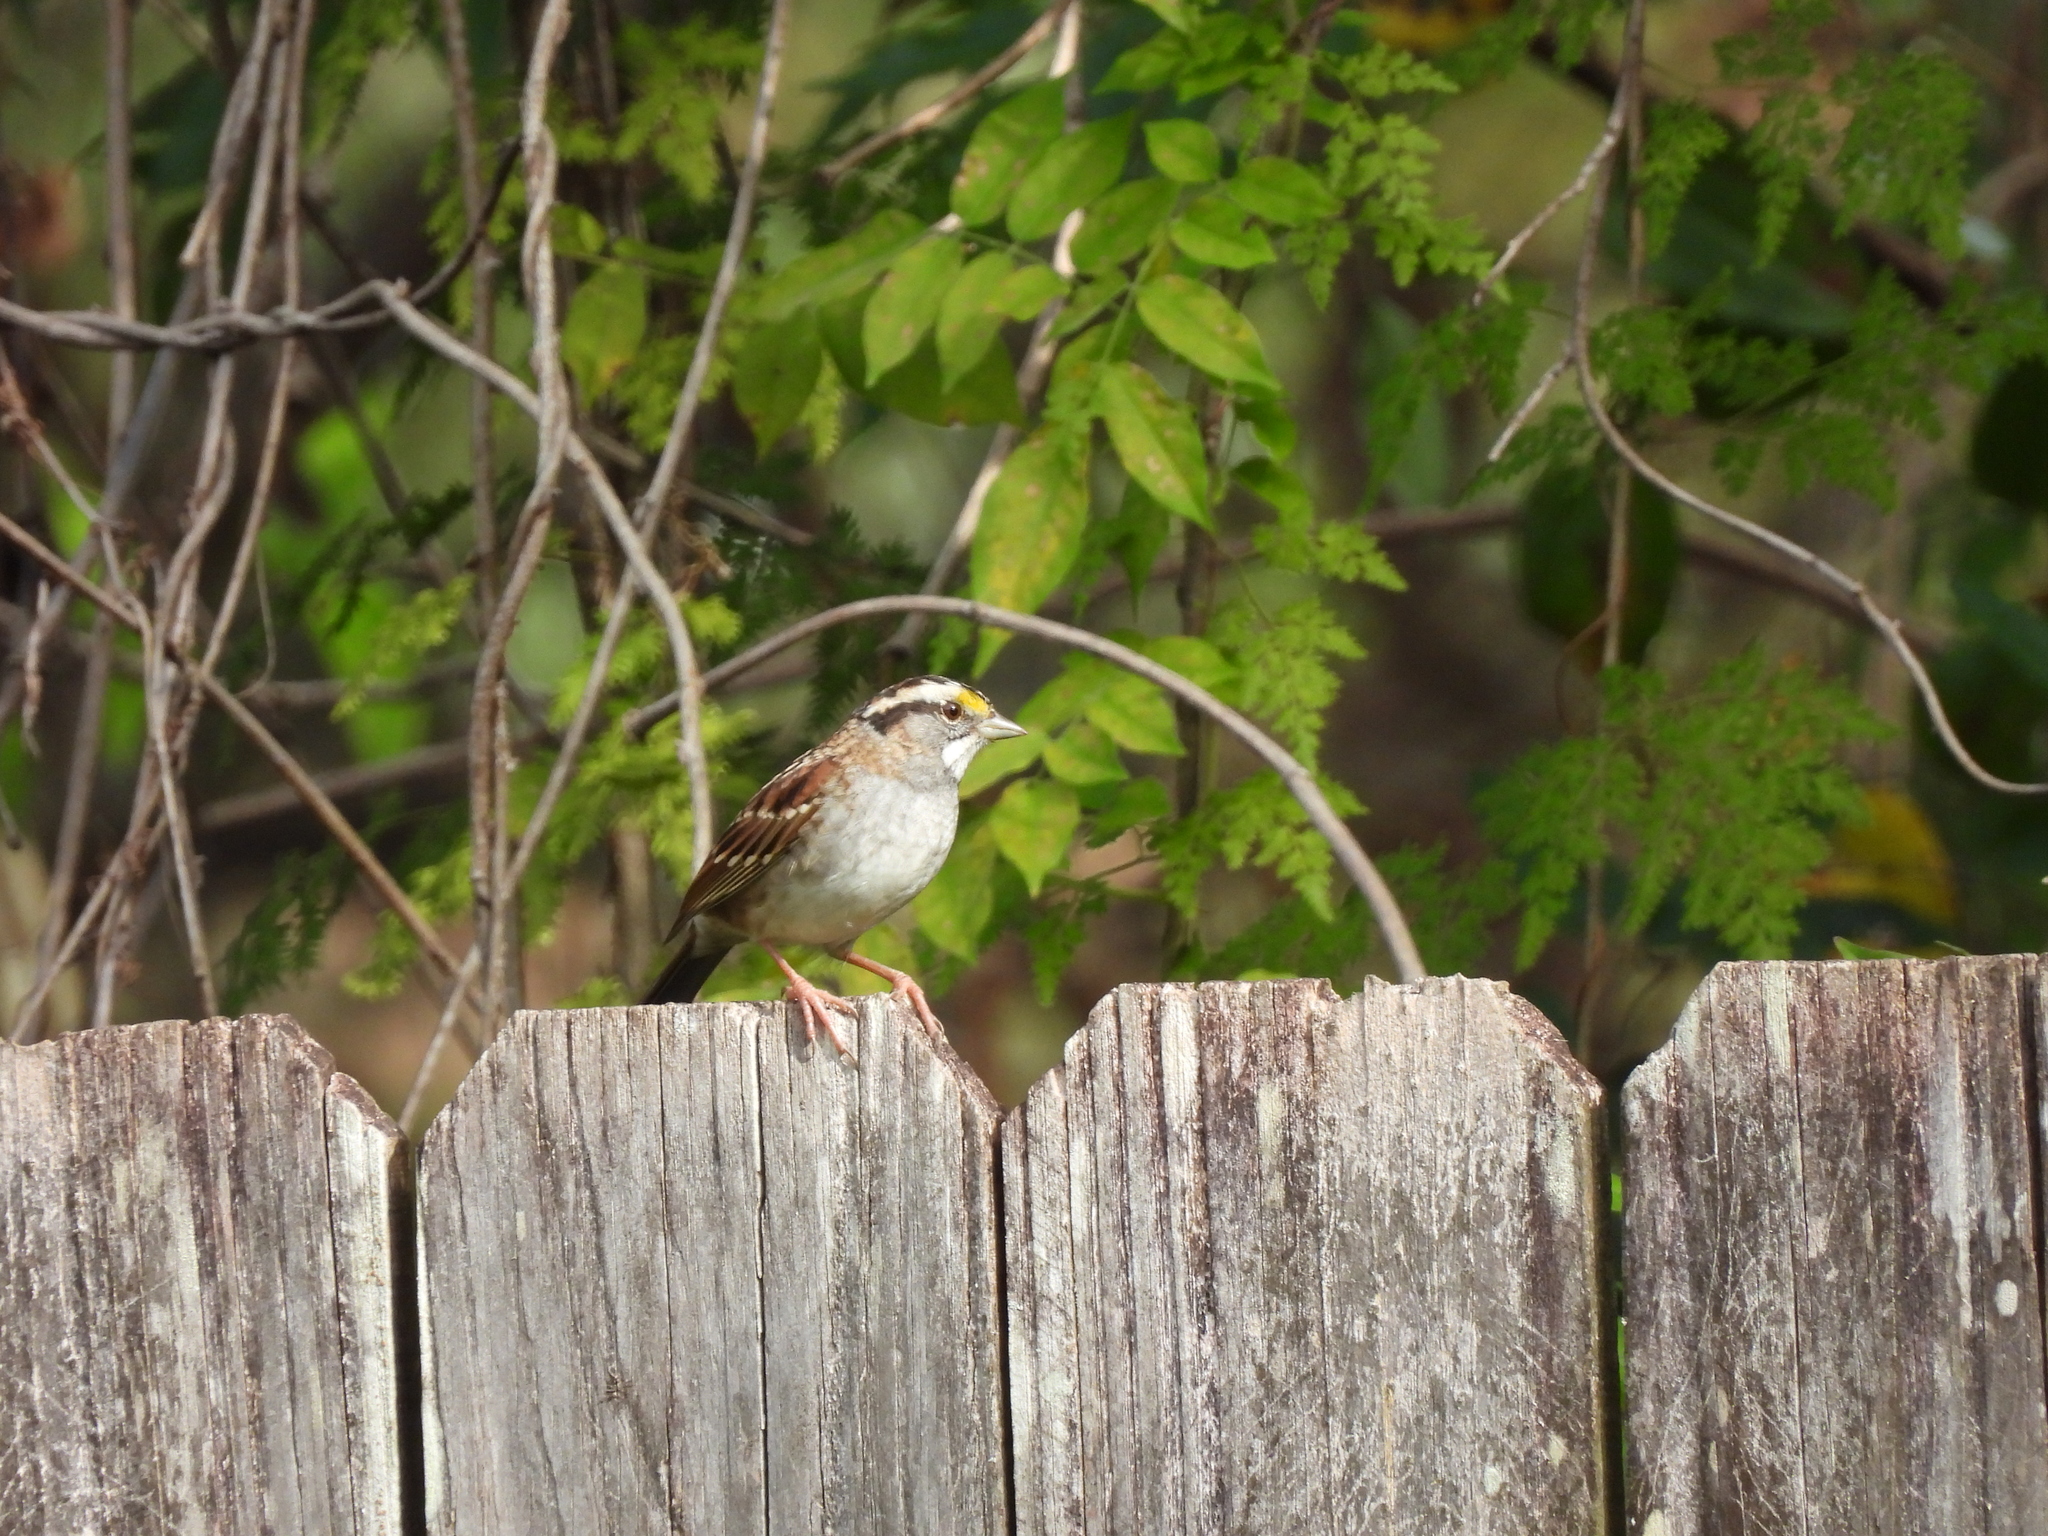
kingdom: Animalia
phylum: Chordata
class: Aves
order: Passeriformes
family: Passerellidae
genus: Zonotrichia
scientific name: Zonotrichia albicollis
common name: White-throated sparrow
